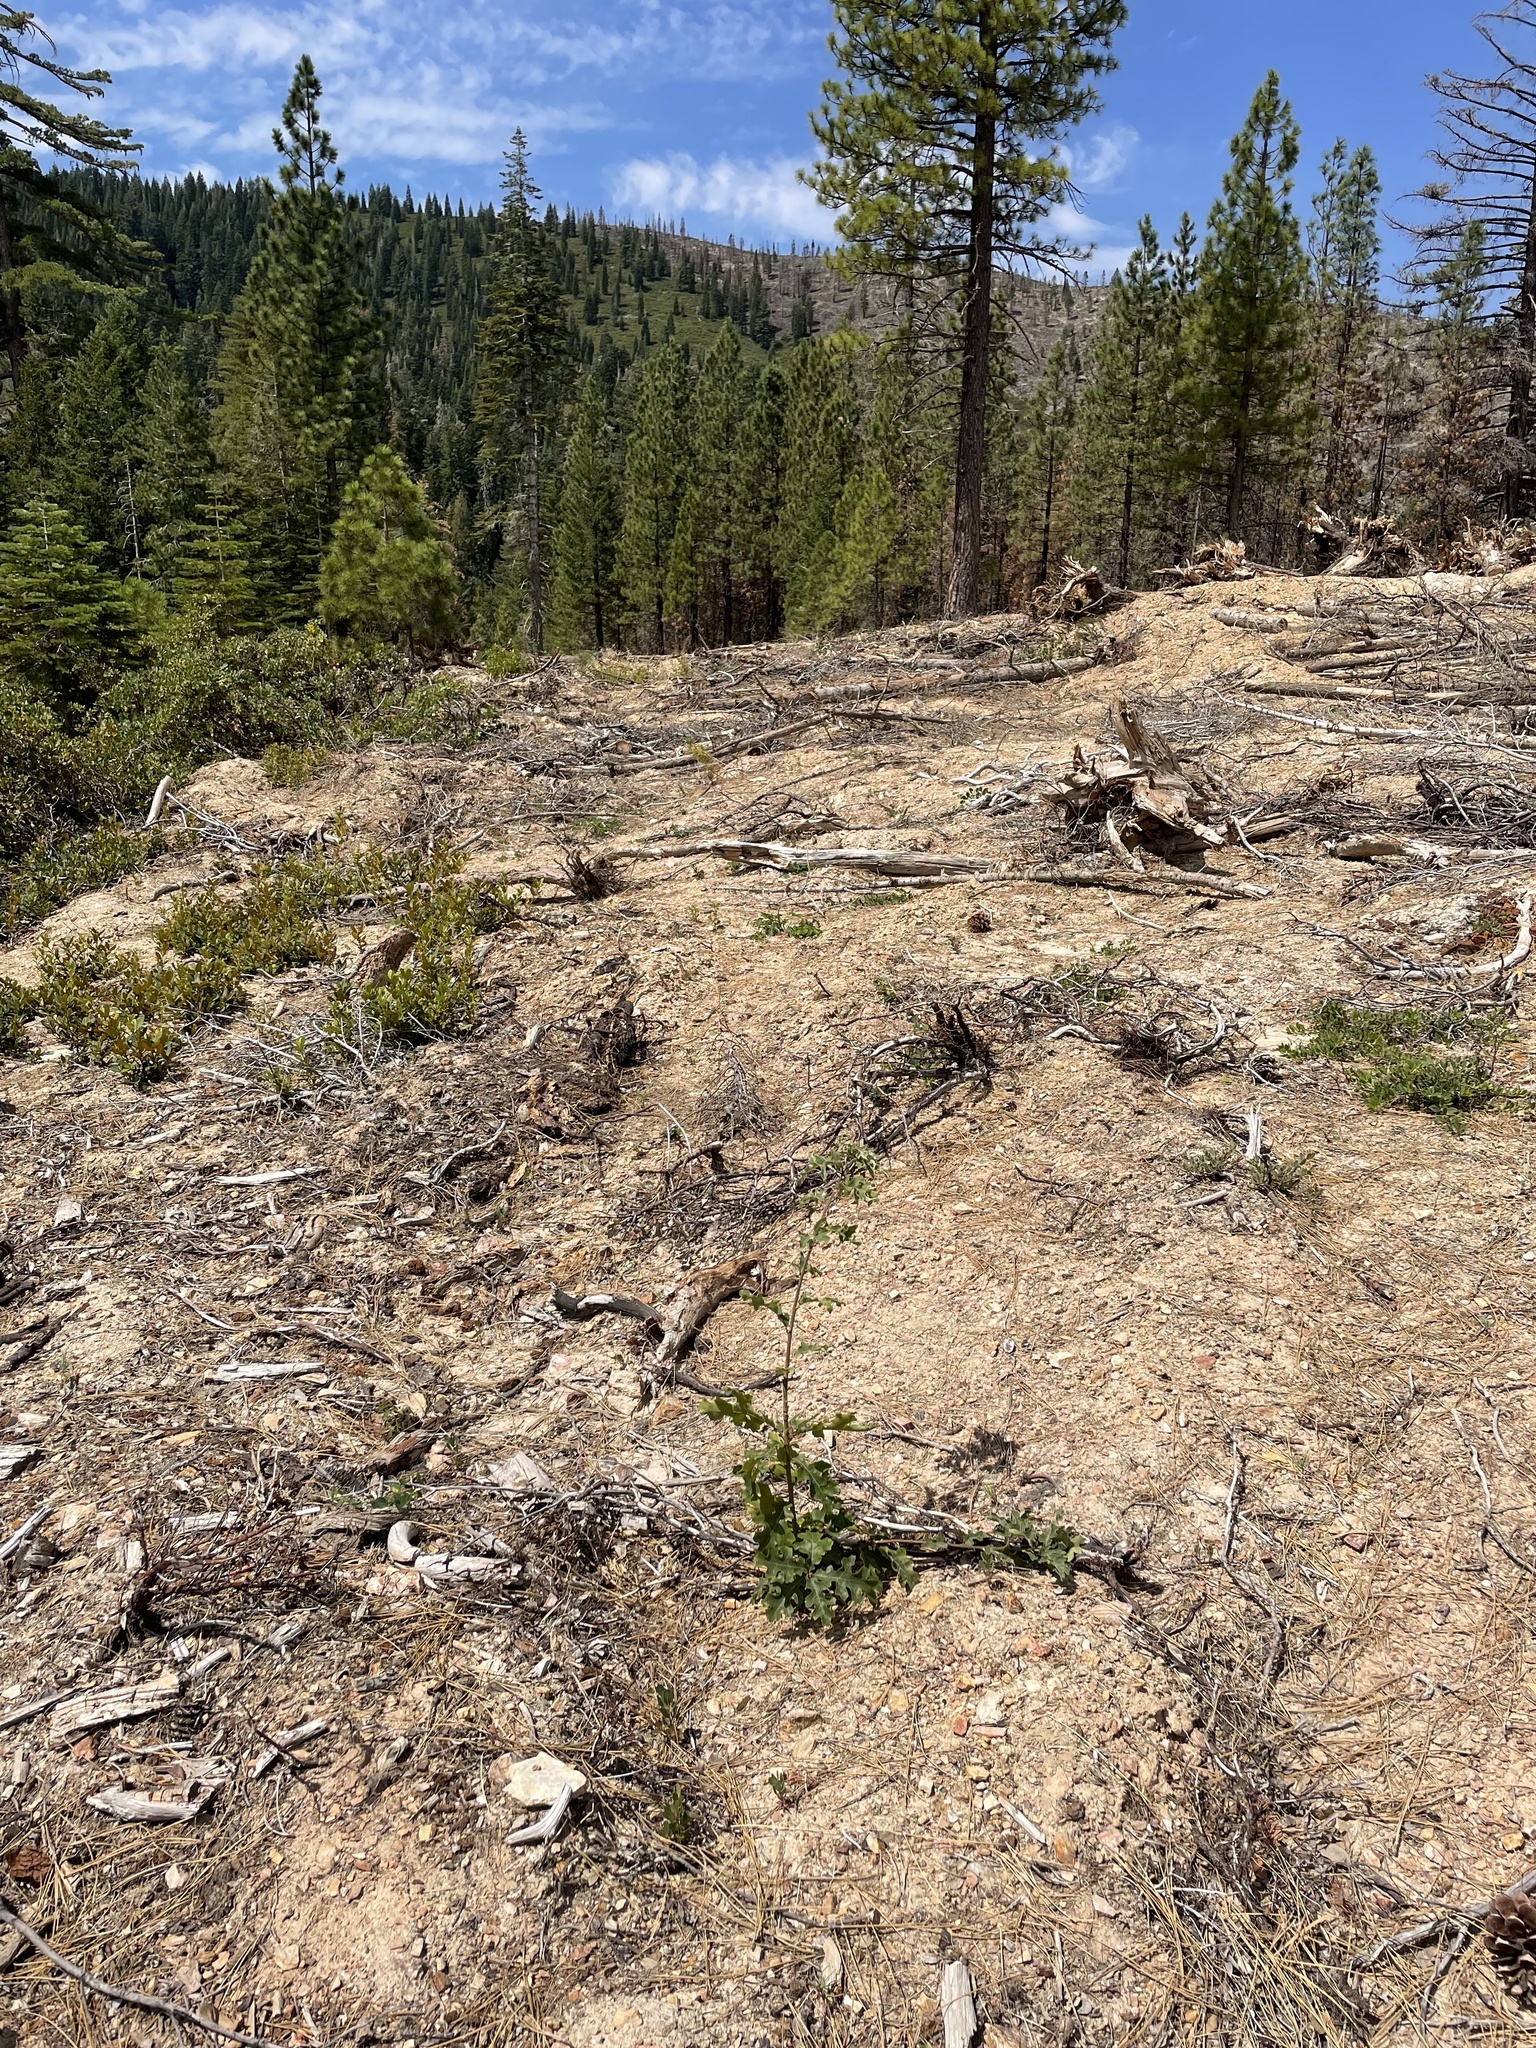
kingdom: Plantae
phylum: Tracheophyta
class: Magnoliopsida
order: Fagales
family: Fagaceae
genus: Quercus
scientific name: Quercus kelloggii
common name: California black oak
